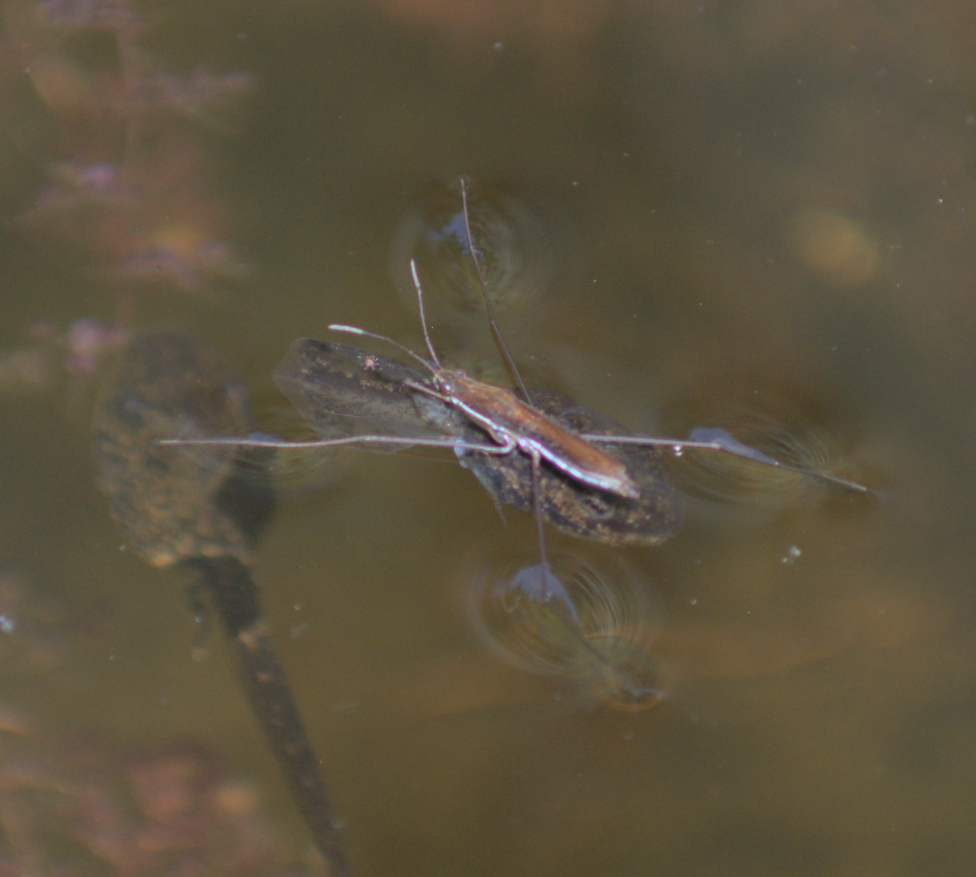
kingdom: Animalia
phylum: Arthropoda
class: Insecta
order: Hemiptera
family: Gerridae
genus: Limnoporus
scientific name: Limnoporus dissortis
